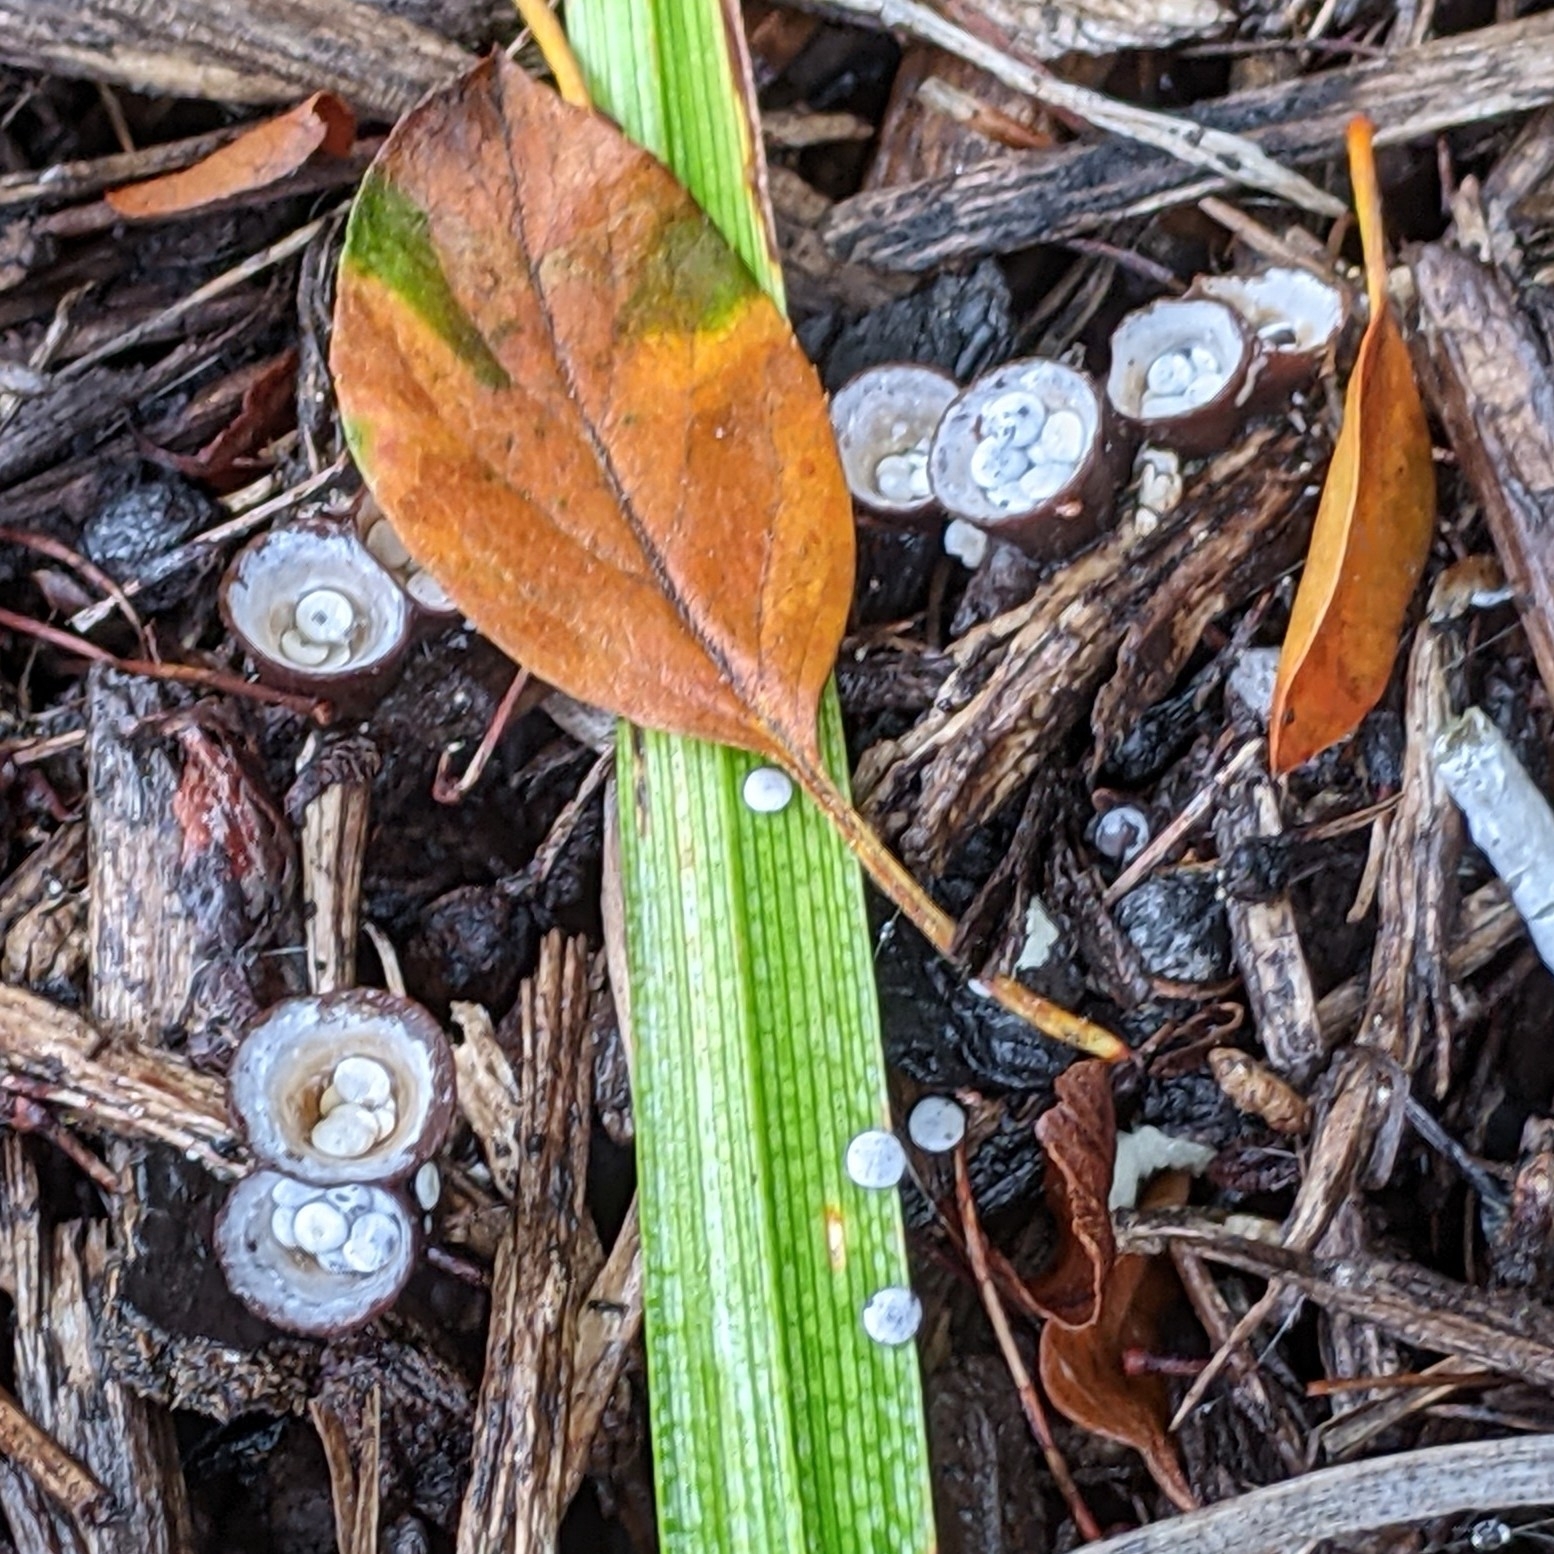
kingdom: Fungi
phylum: Basidiomycota
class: Agaricomycetes
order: Agaricales
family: Nidulariaceae
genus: Crucibulum
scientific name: Crucibulum laeve
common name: Common bird's nest
